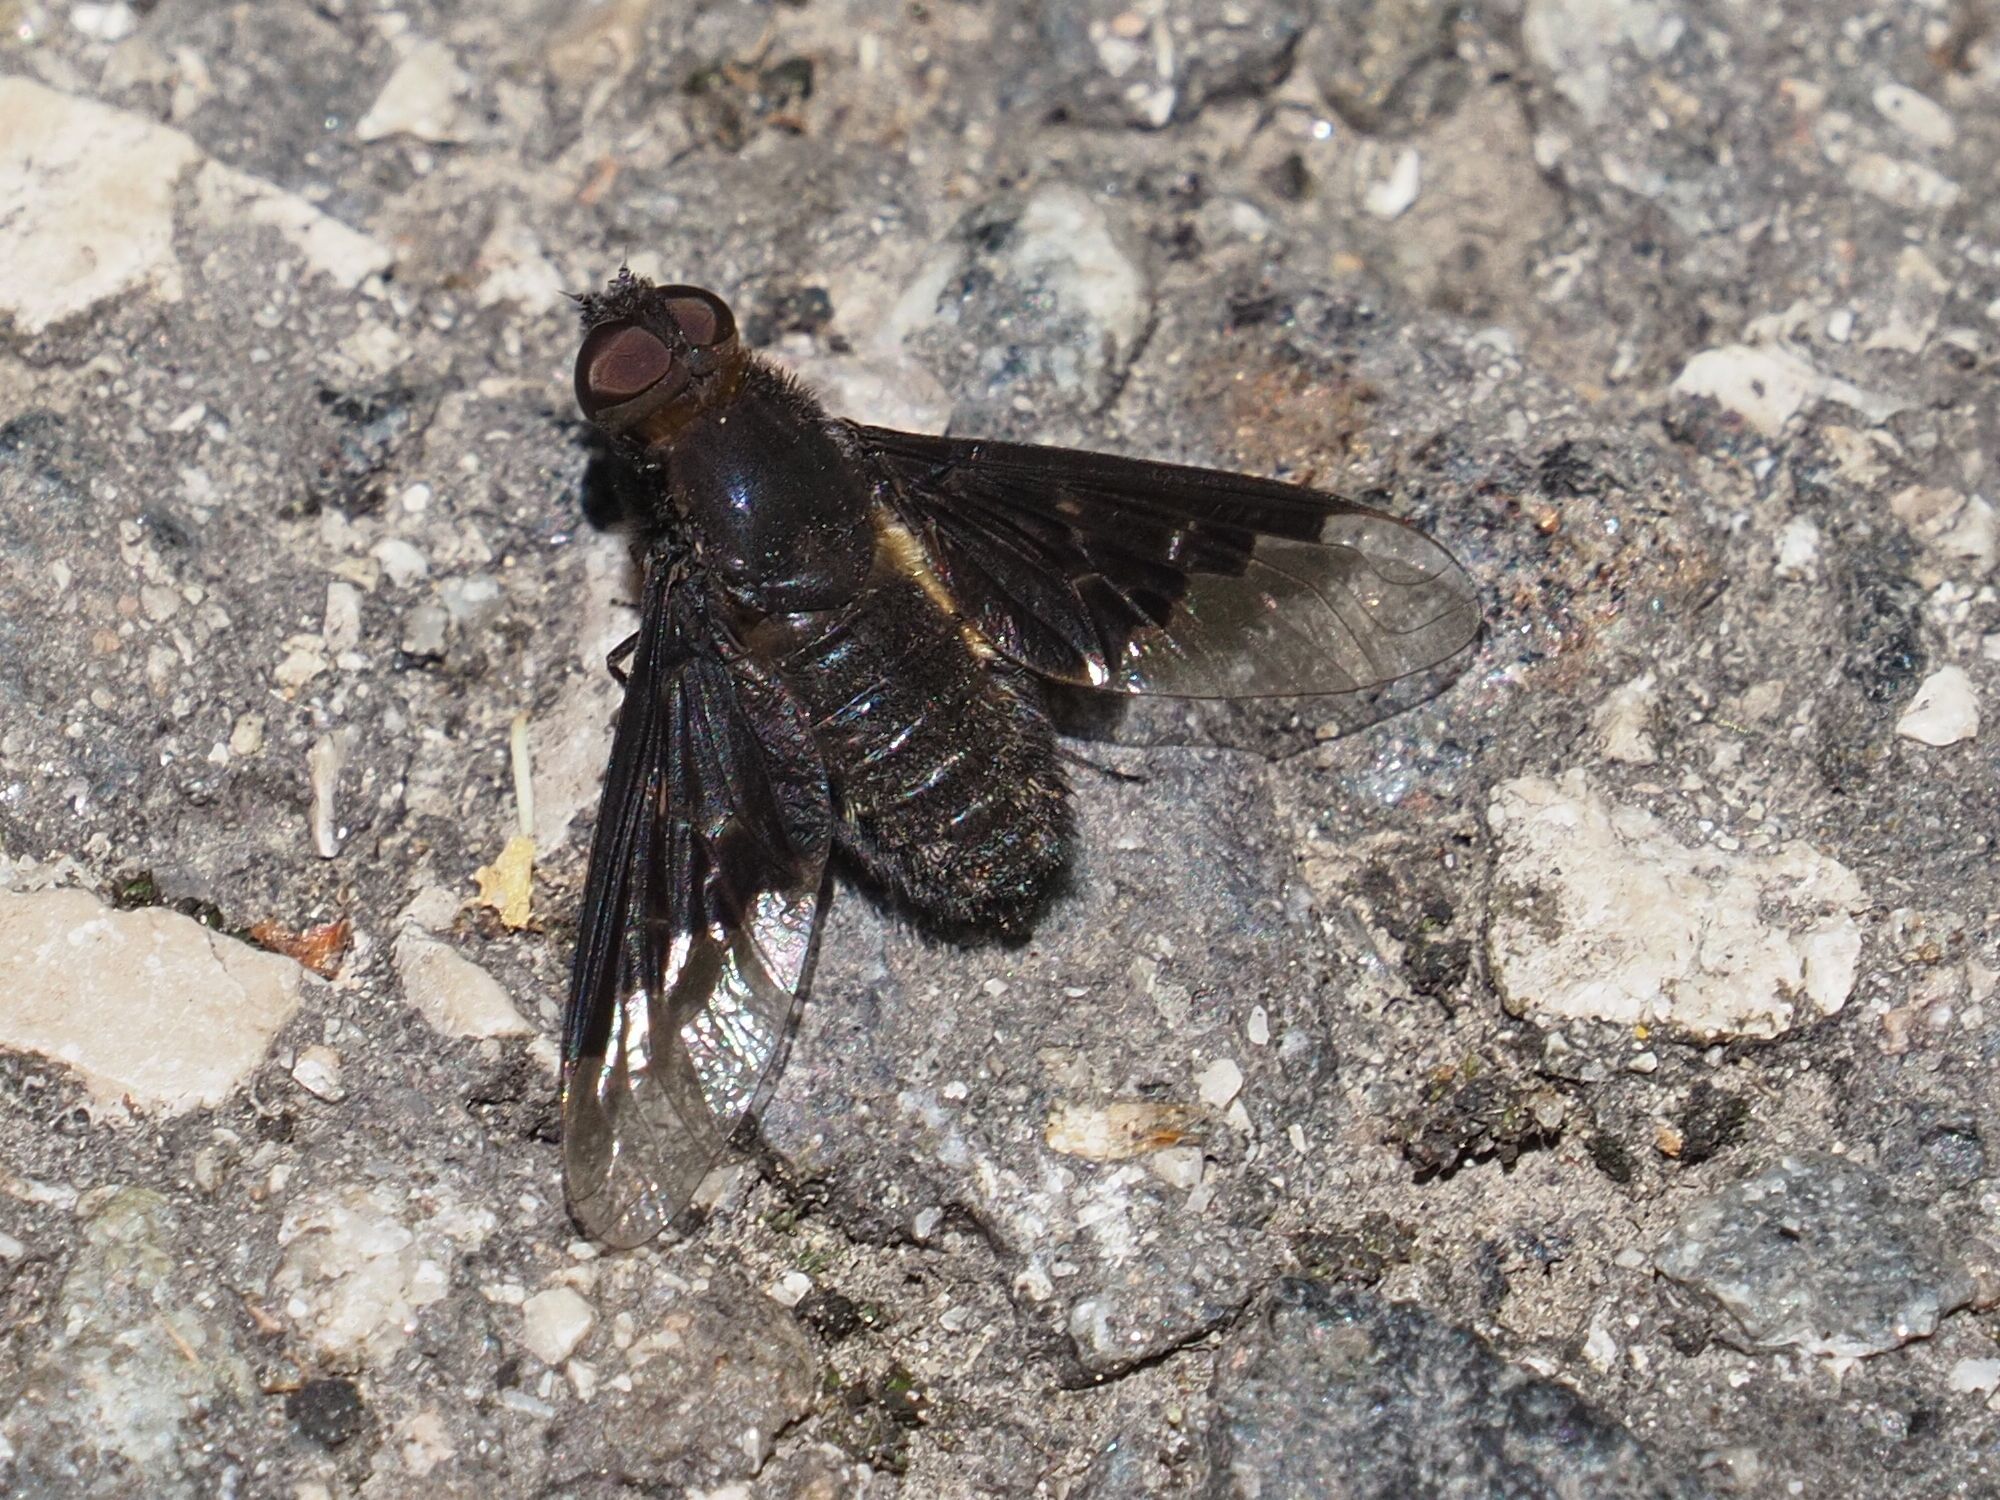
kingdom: Animalia
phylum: Arthropoda
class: Insecta
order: Diptera
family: Bombyliidae
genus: Hemipenthes
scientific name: Hemipenthes morio
